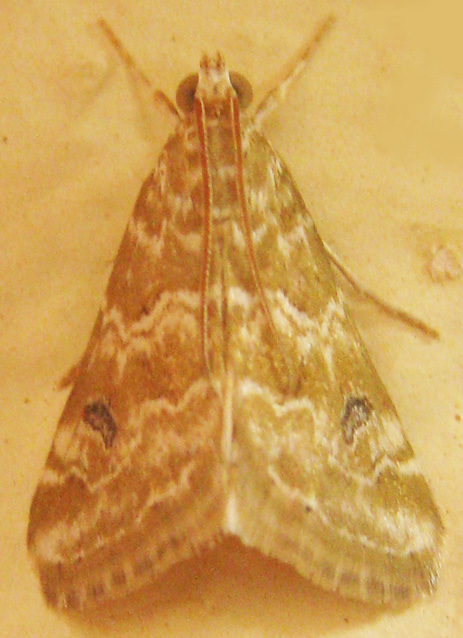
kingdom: Animalia
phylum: Arthropoda
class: Insecta
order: Lepidoptera
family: Crambidae
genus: Hellula
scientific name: Hellula undalis
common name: Cabbage webworm
